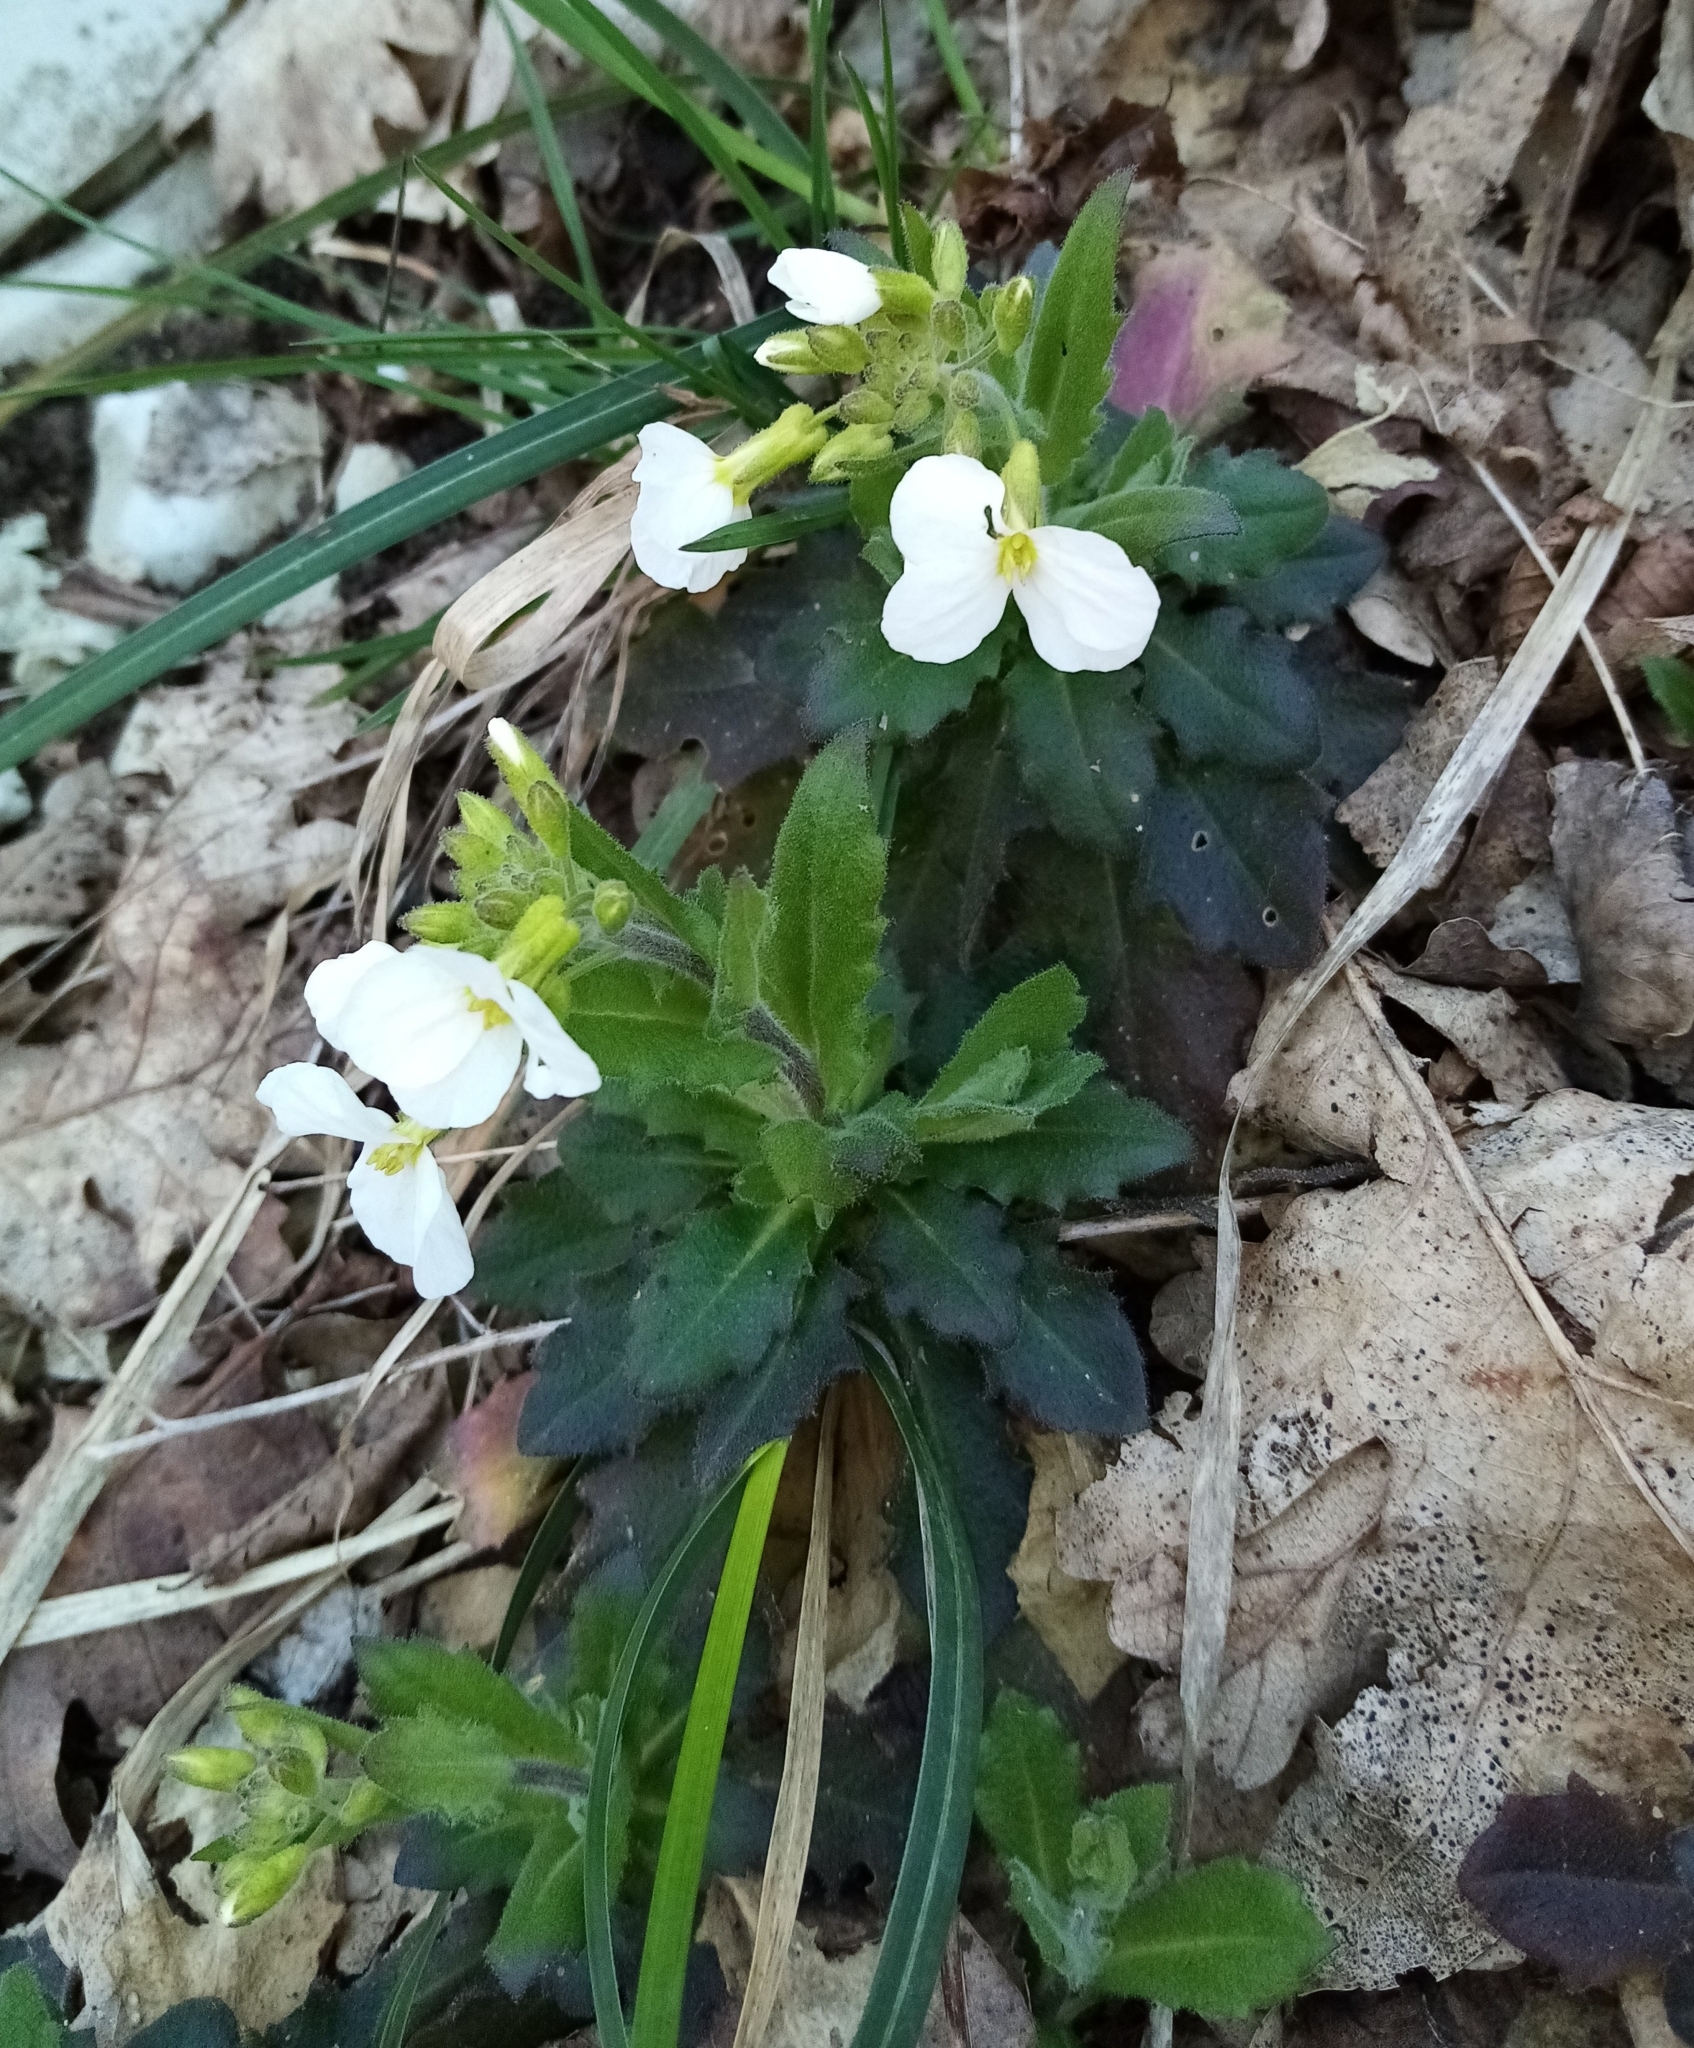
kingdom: Plantae
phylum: Tracheophyta
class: Magnoliopsida
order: Brassicales
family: Brassicaceae
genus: Arabis
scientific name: Arabis caucasica
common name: Gray rockcress
